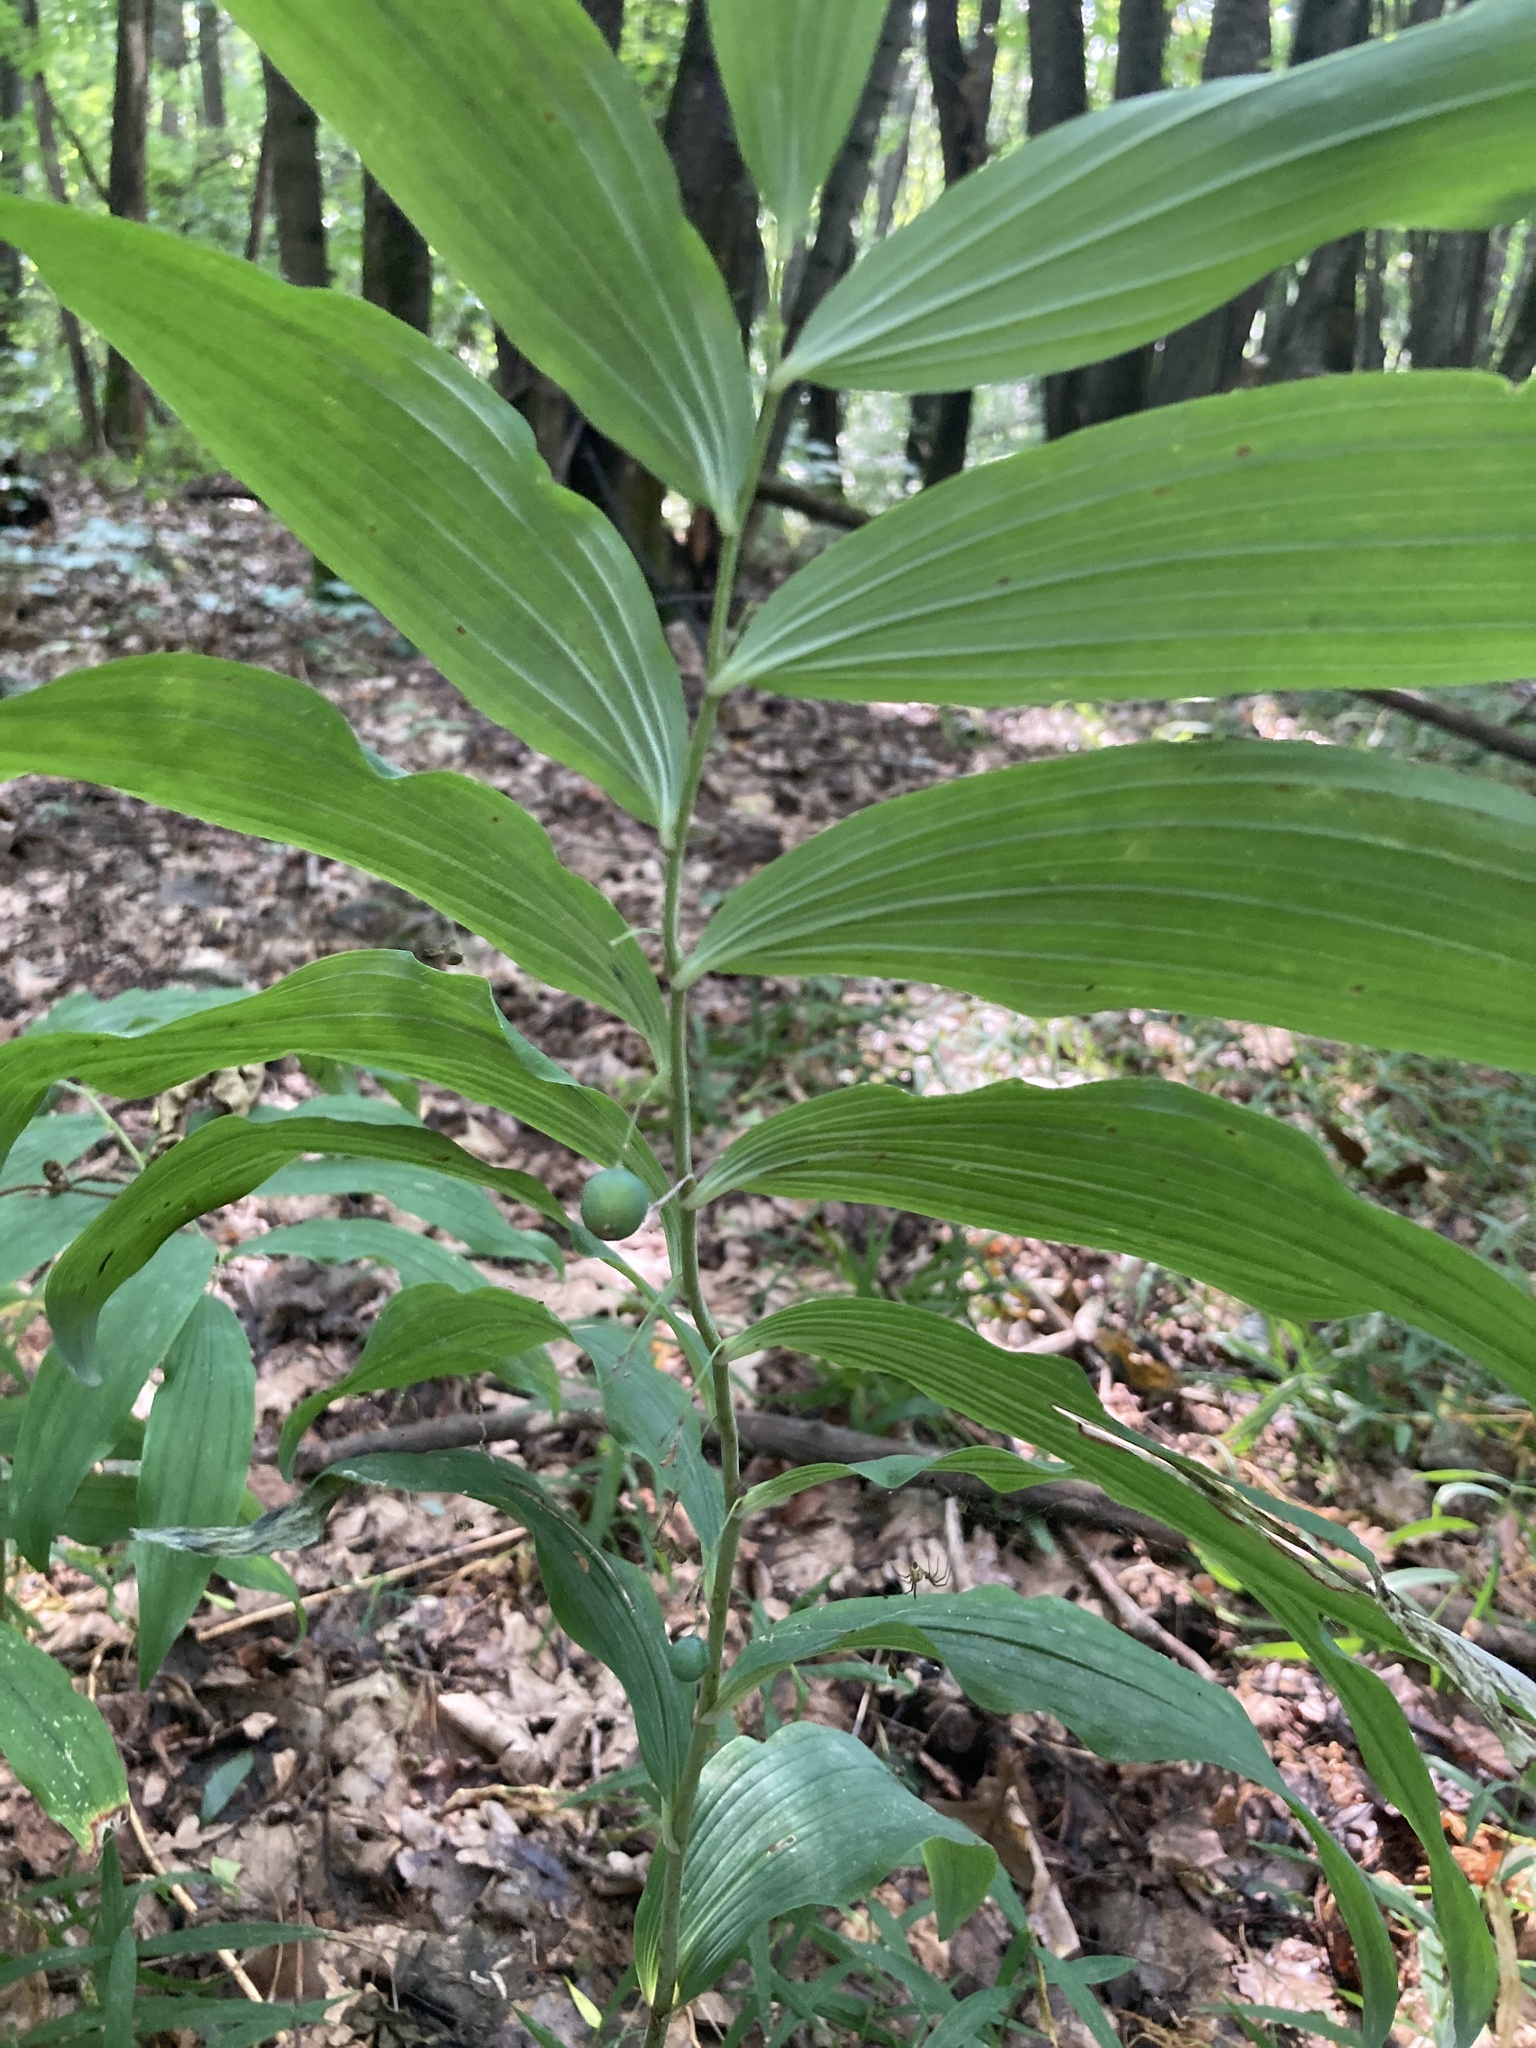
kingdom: Plantae
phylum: Tracheophyta
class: Liliopsida
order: Asparagales
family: Asparagaceae
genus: Polygonatum
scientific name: Polygonatum multiflorum
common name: Solomon's-seal
